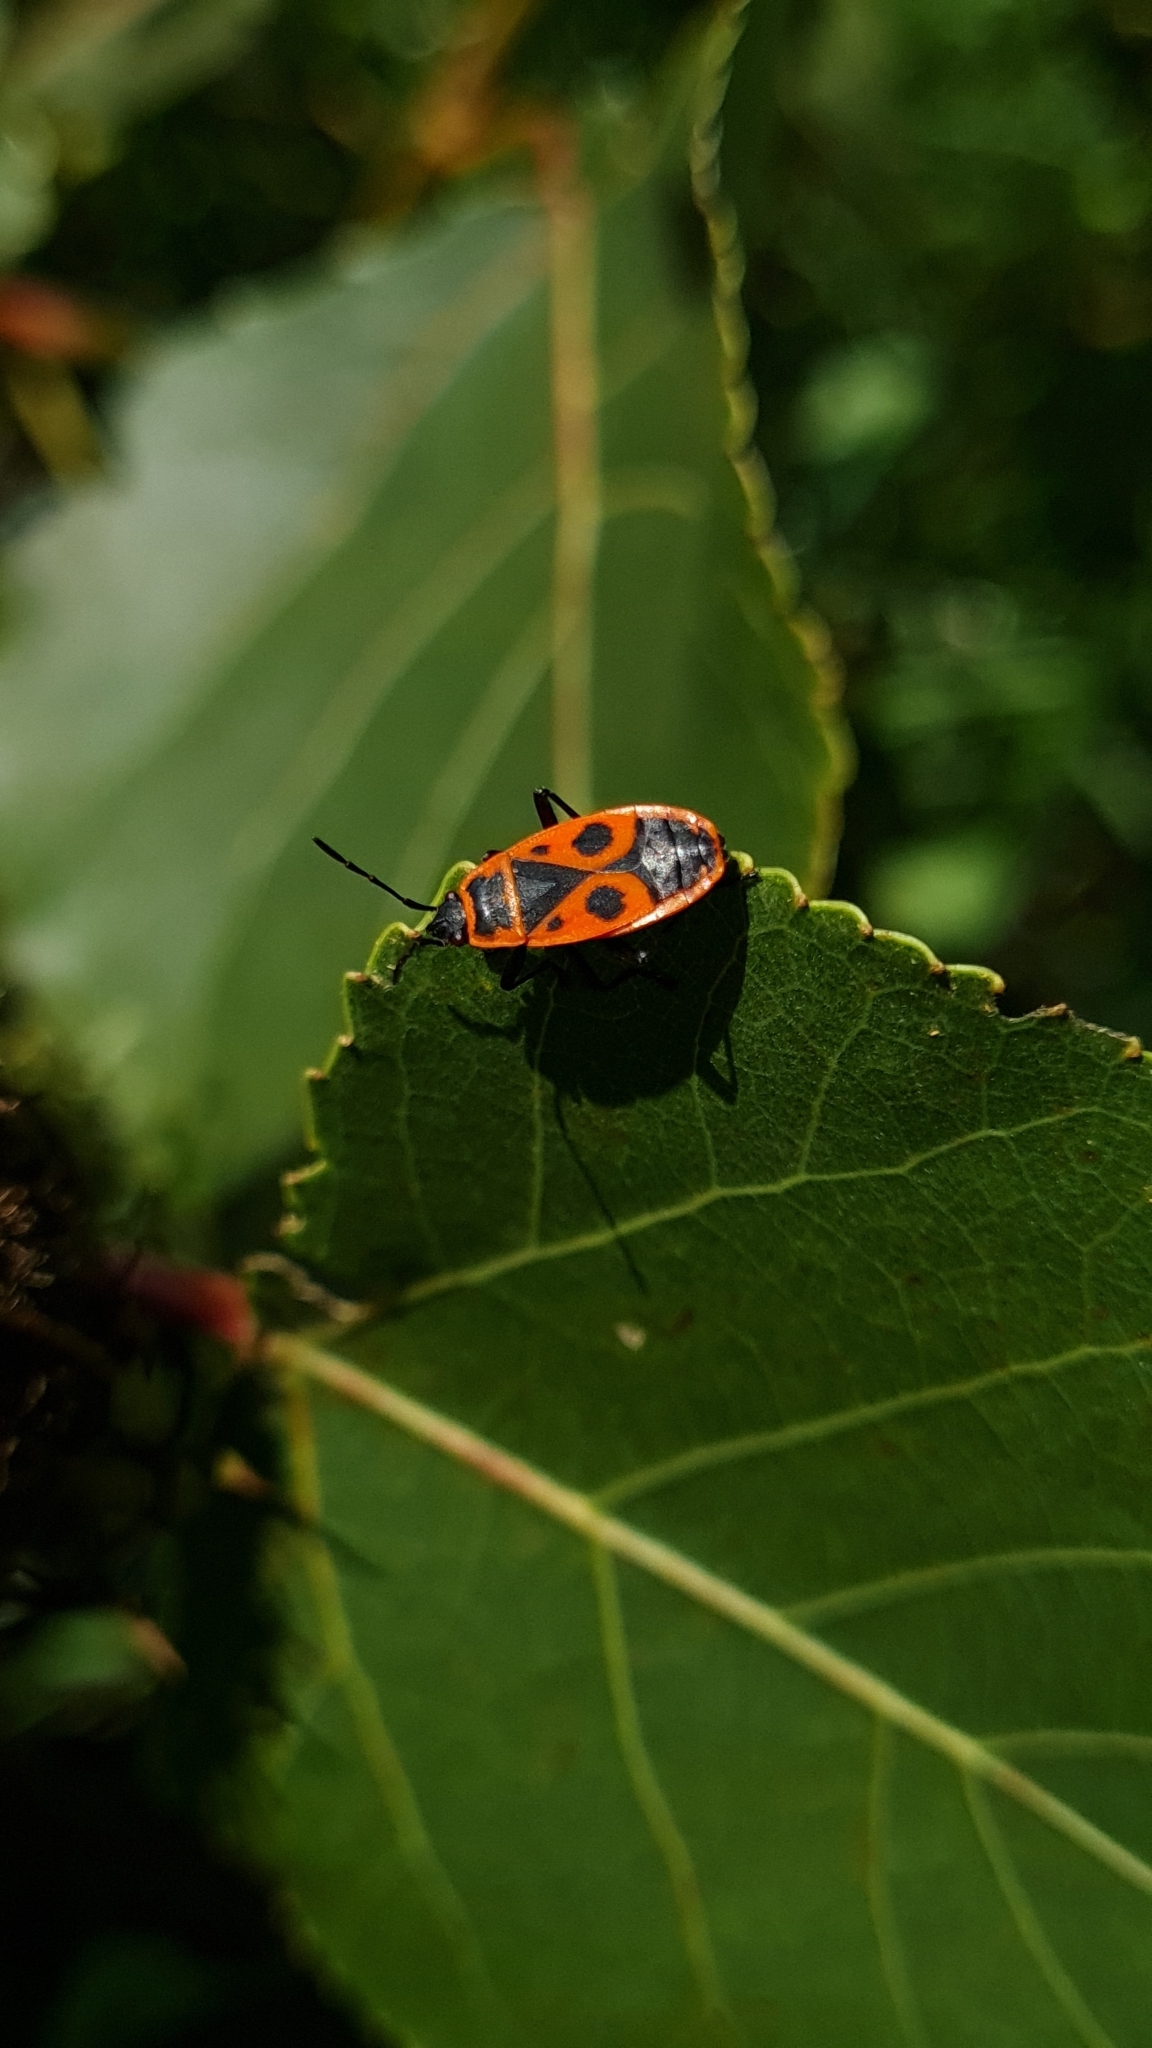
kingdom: Animalia
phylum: Arthropoda
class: Insecta
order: Hemiptera
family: Pyrrhocoridae
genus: Pyrrhocoris
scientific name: Pyrrhocoris apterus
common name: Firebug
